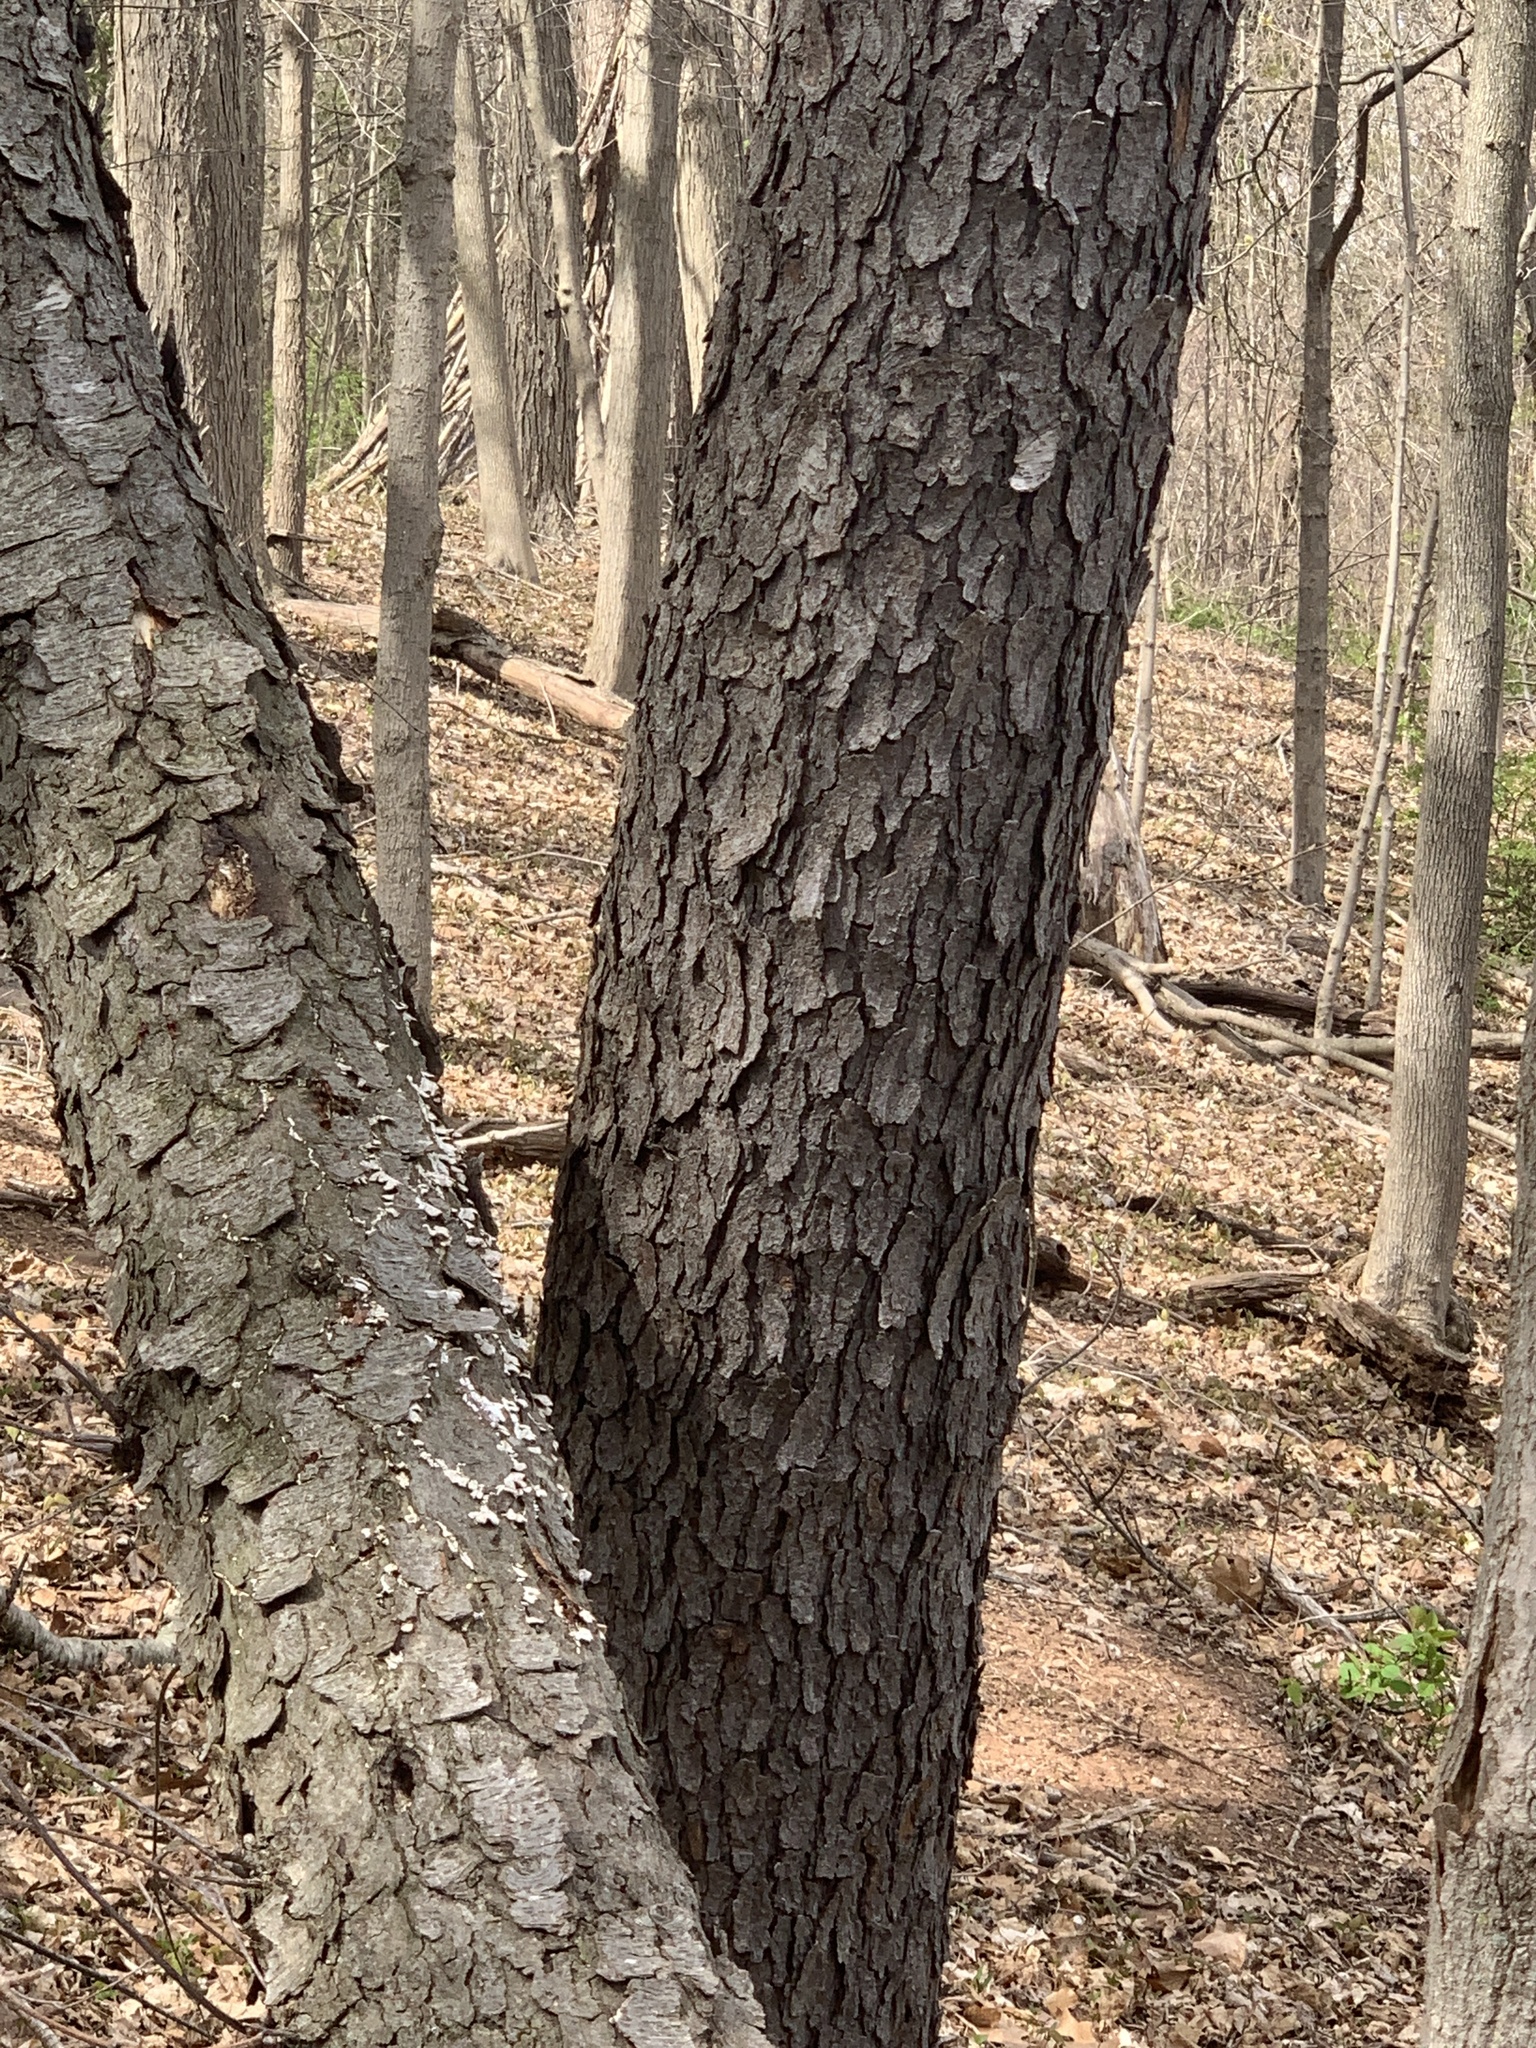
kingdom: Plantae
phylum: Tracheophyta
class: Magnoliopsida
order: Rosales
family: Rosaceae
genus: Prunus
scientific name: Prunus serotina
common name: Black cherry
